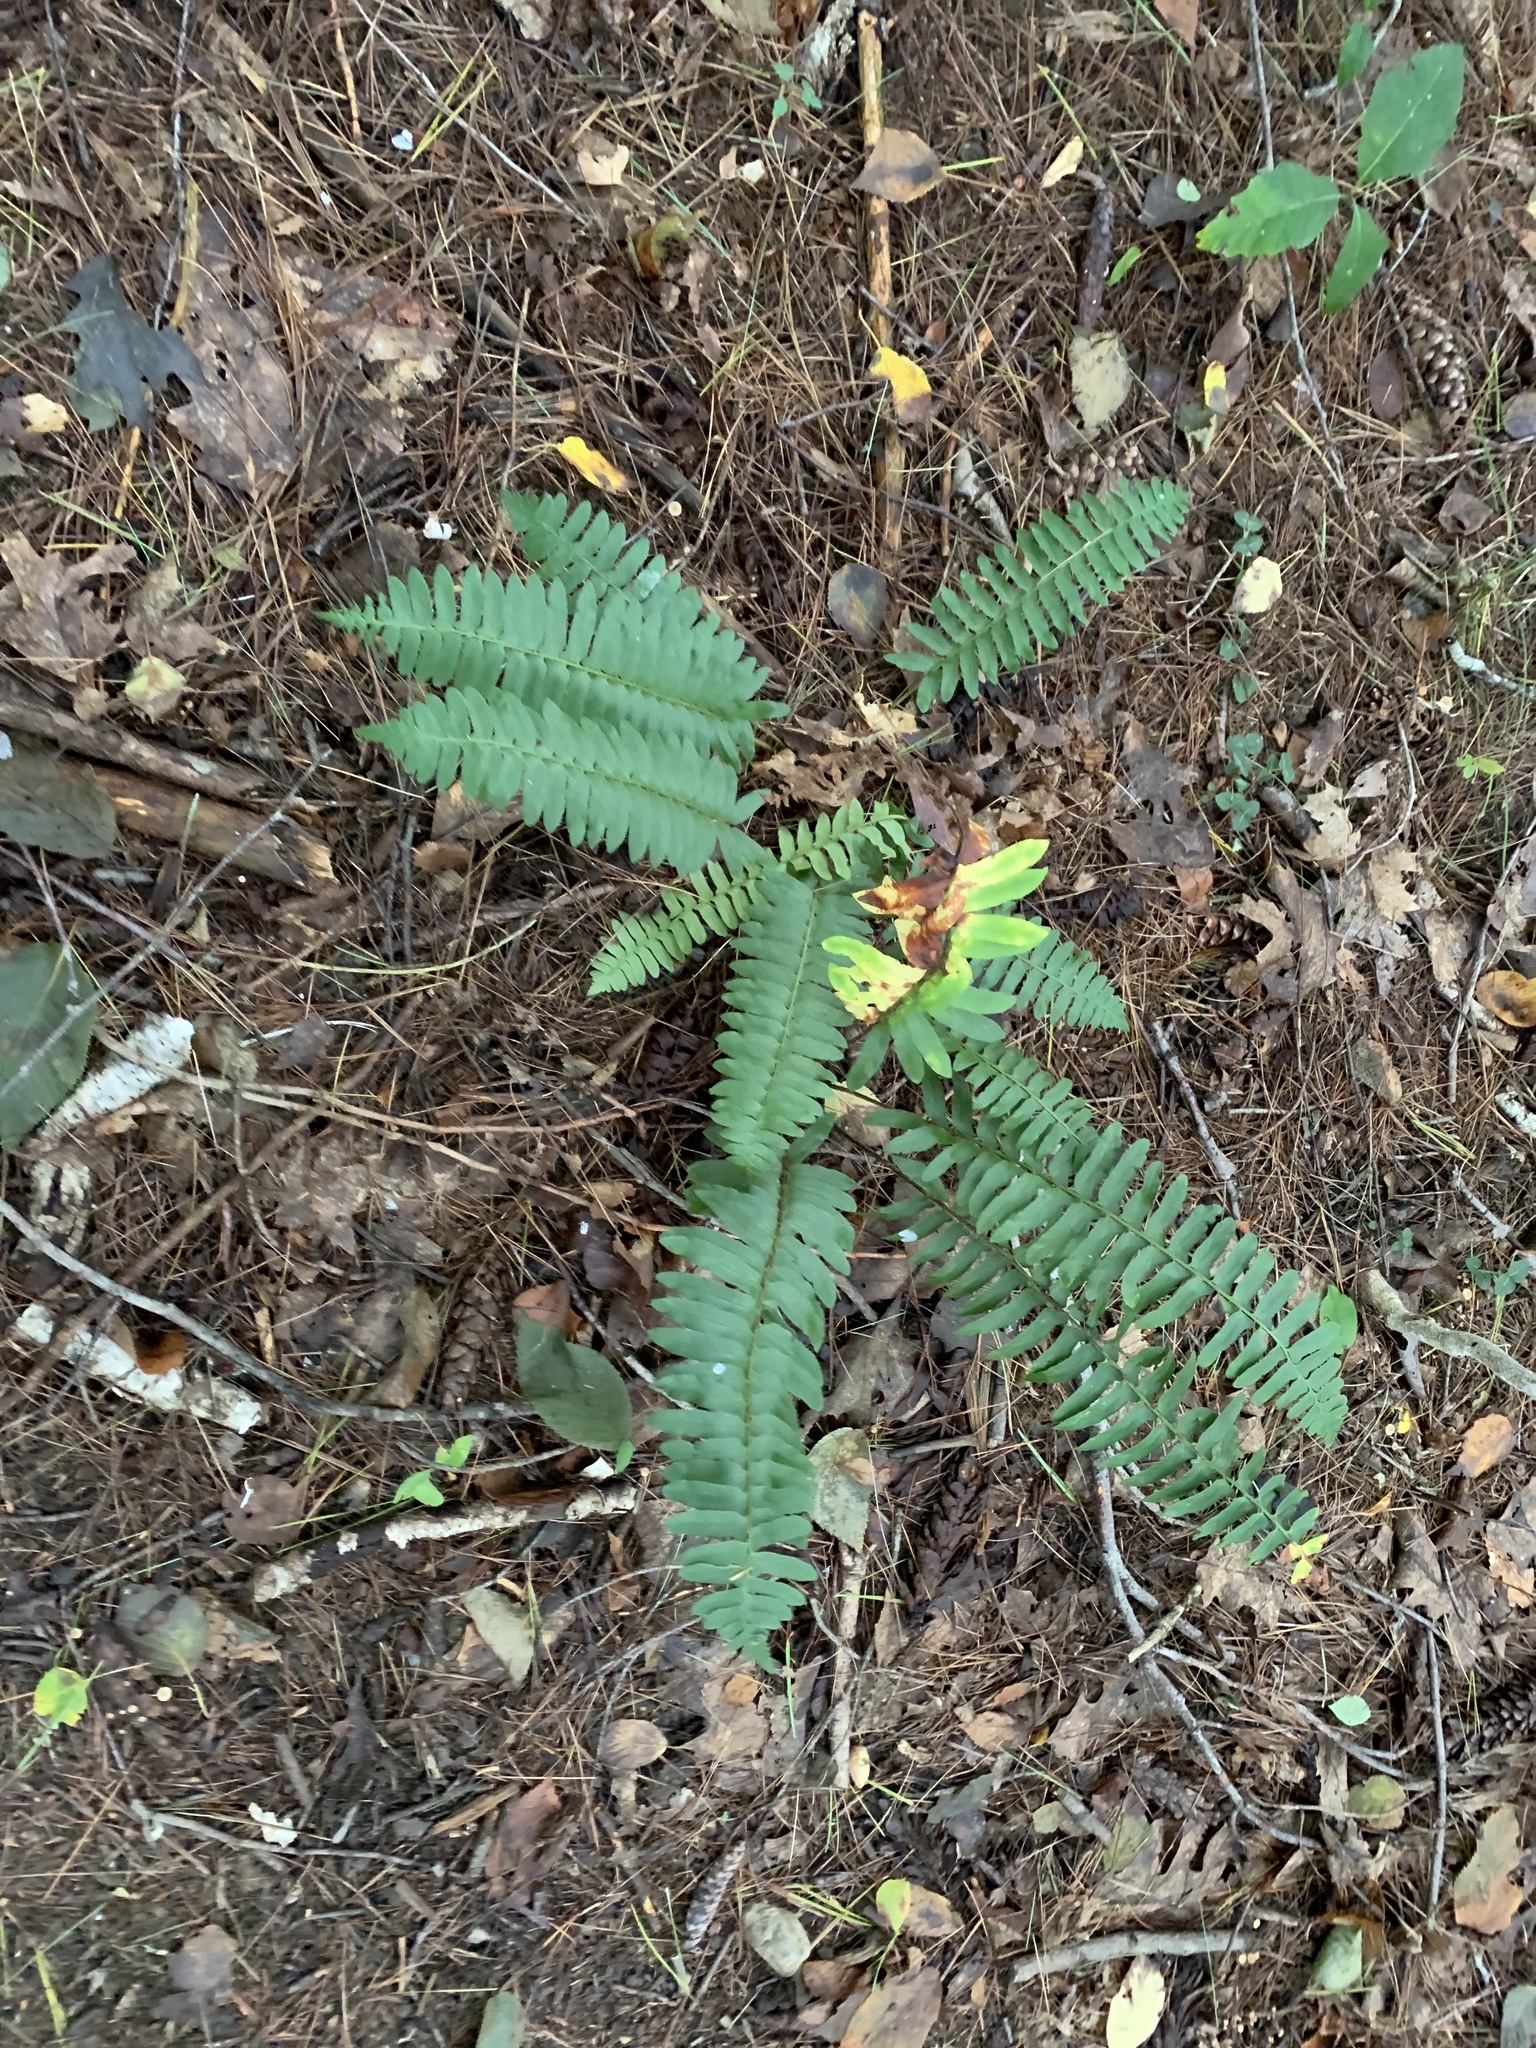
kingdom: Plantae
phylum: Tracheophyta
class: Polypodiopsida
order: Polypodiales
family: Dryopteridaceae
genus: Polystichum
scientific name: Polystichum acrostichoides
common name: Christmas fern
